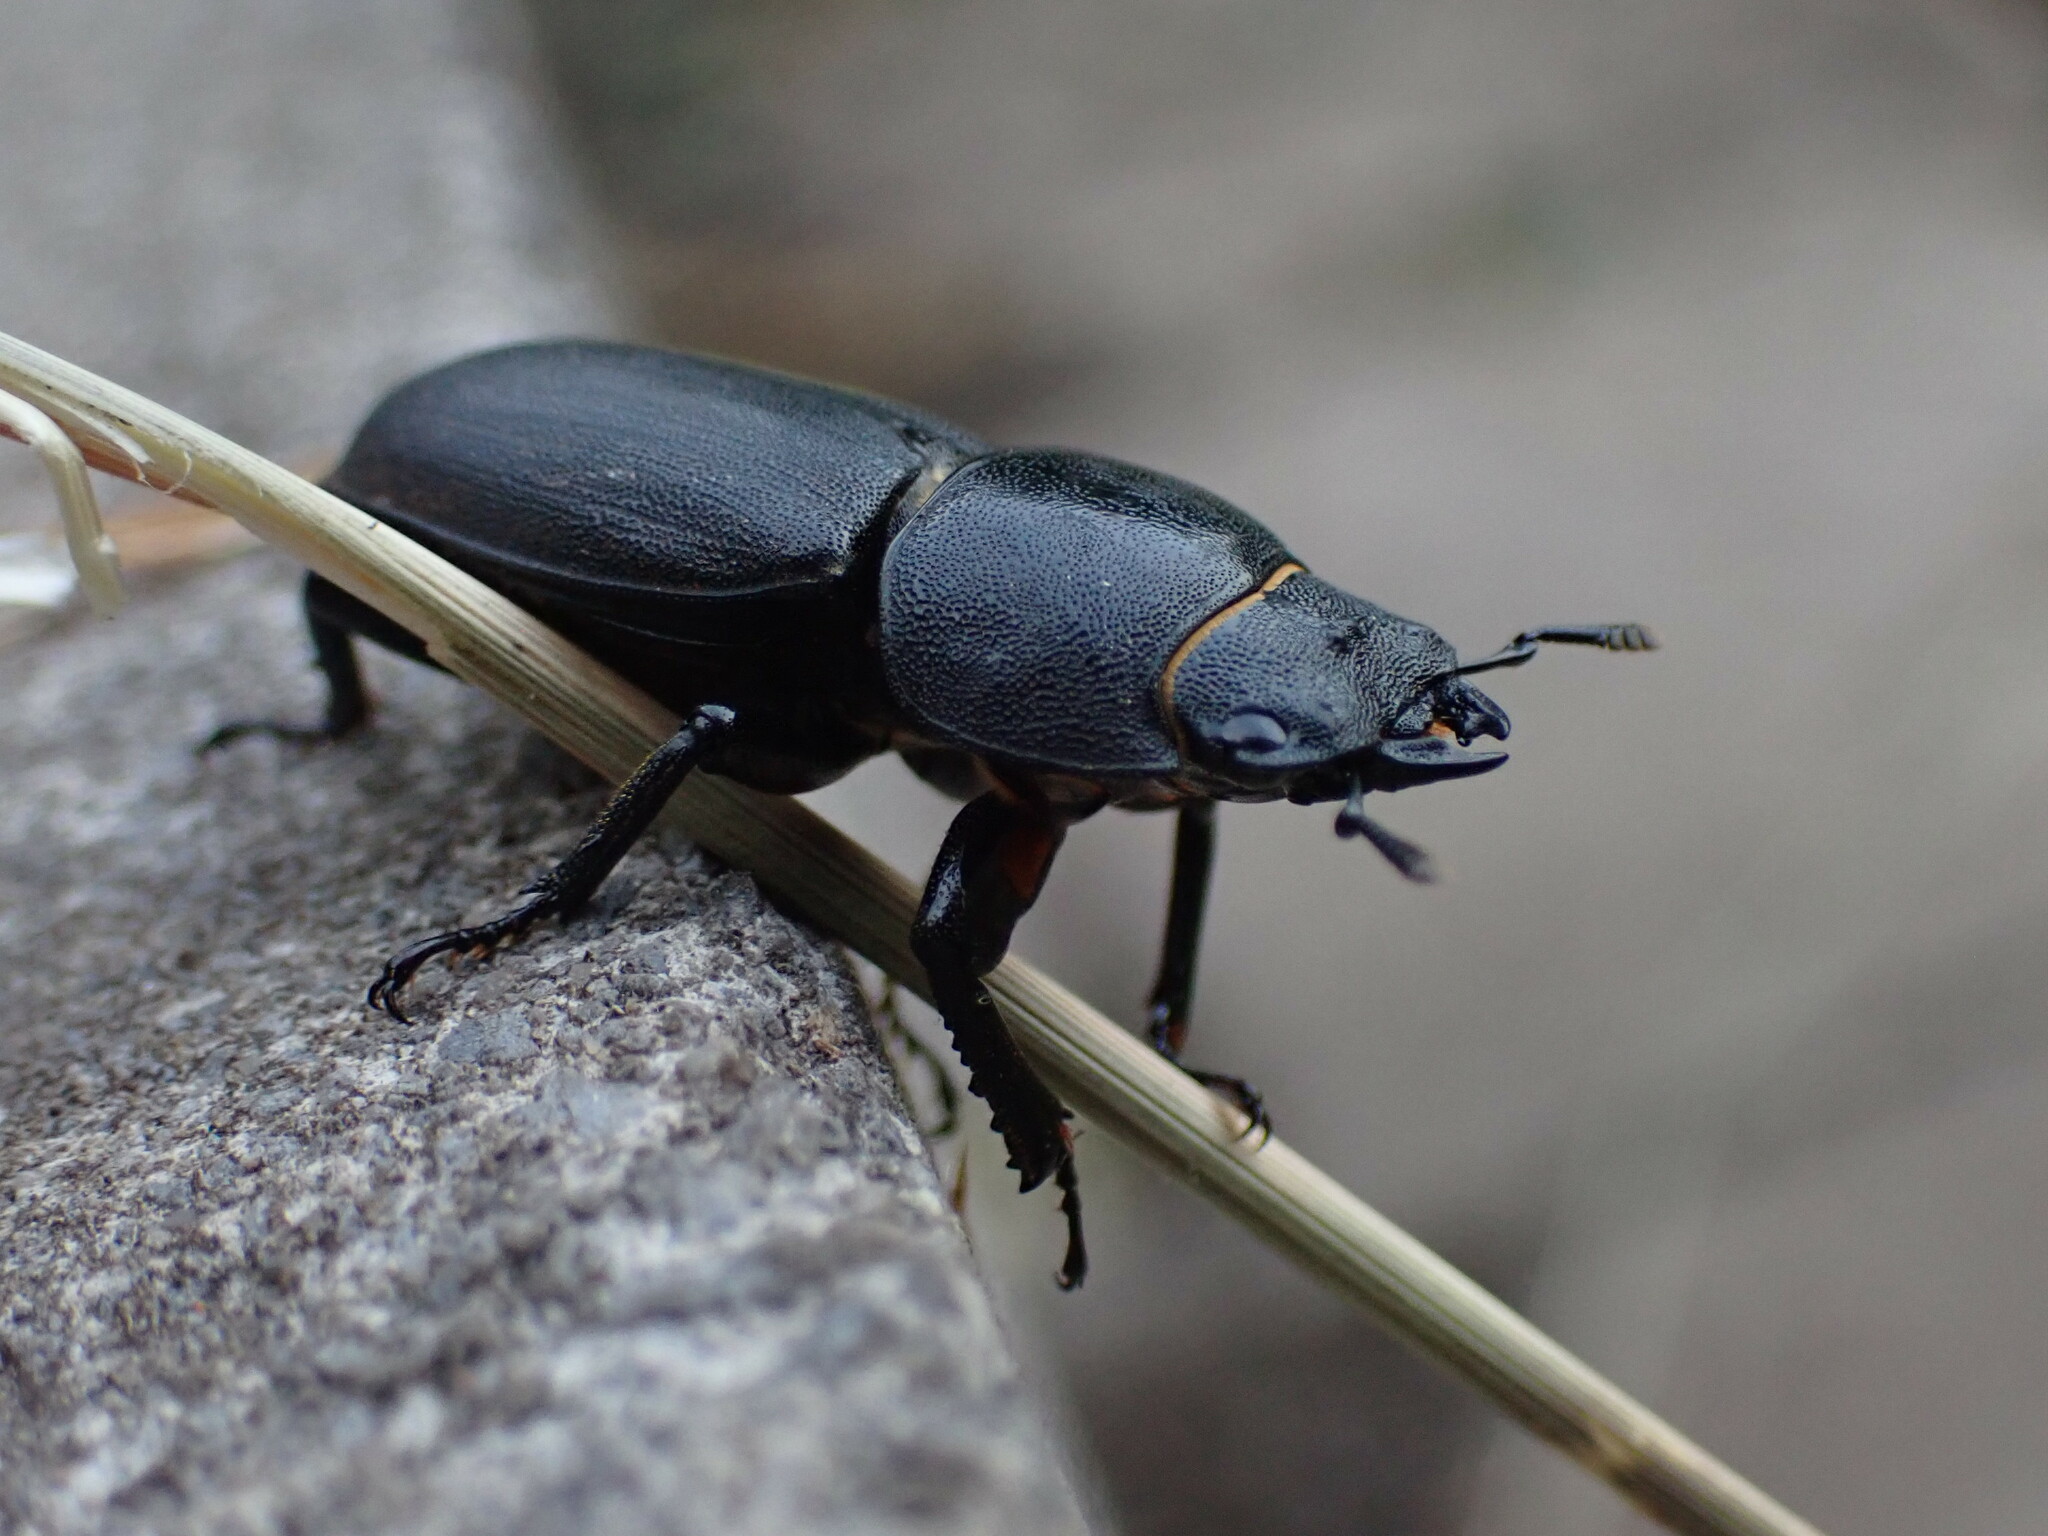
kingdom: Animalia
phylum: Arthropoda
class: Insecta
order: Coleoptera
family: Lucanidae
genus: Dorcus
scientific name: Dorcus parallelipipedus
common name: Lesser stag beetle
